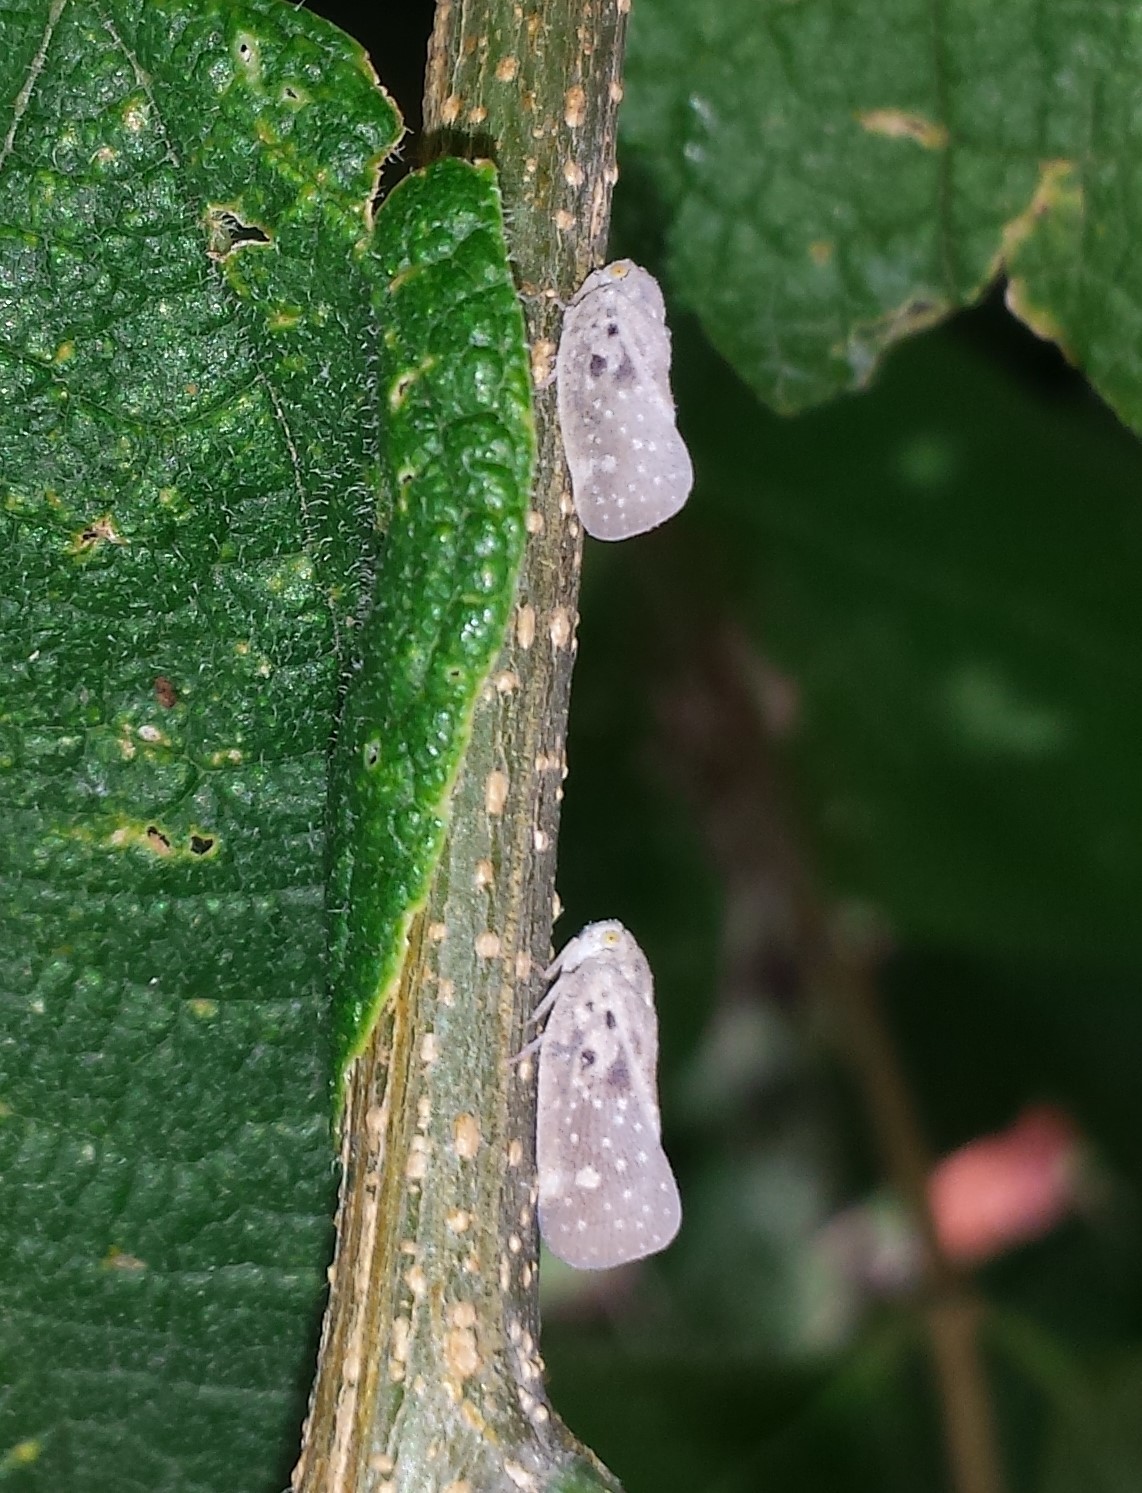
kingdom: Animalia
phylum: Arthropoda
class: Insecta
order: Hemiptera
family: Flatidae
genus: Metcalfa
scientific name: Metcalfa pruinosa
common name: Citrus flatid planthopper
